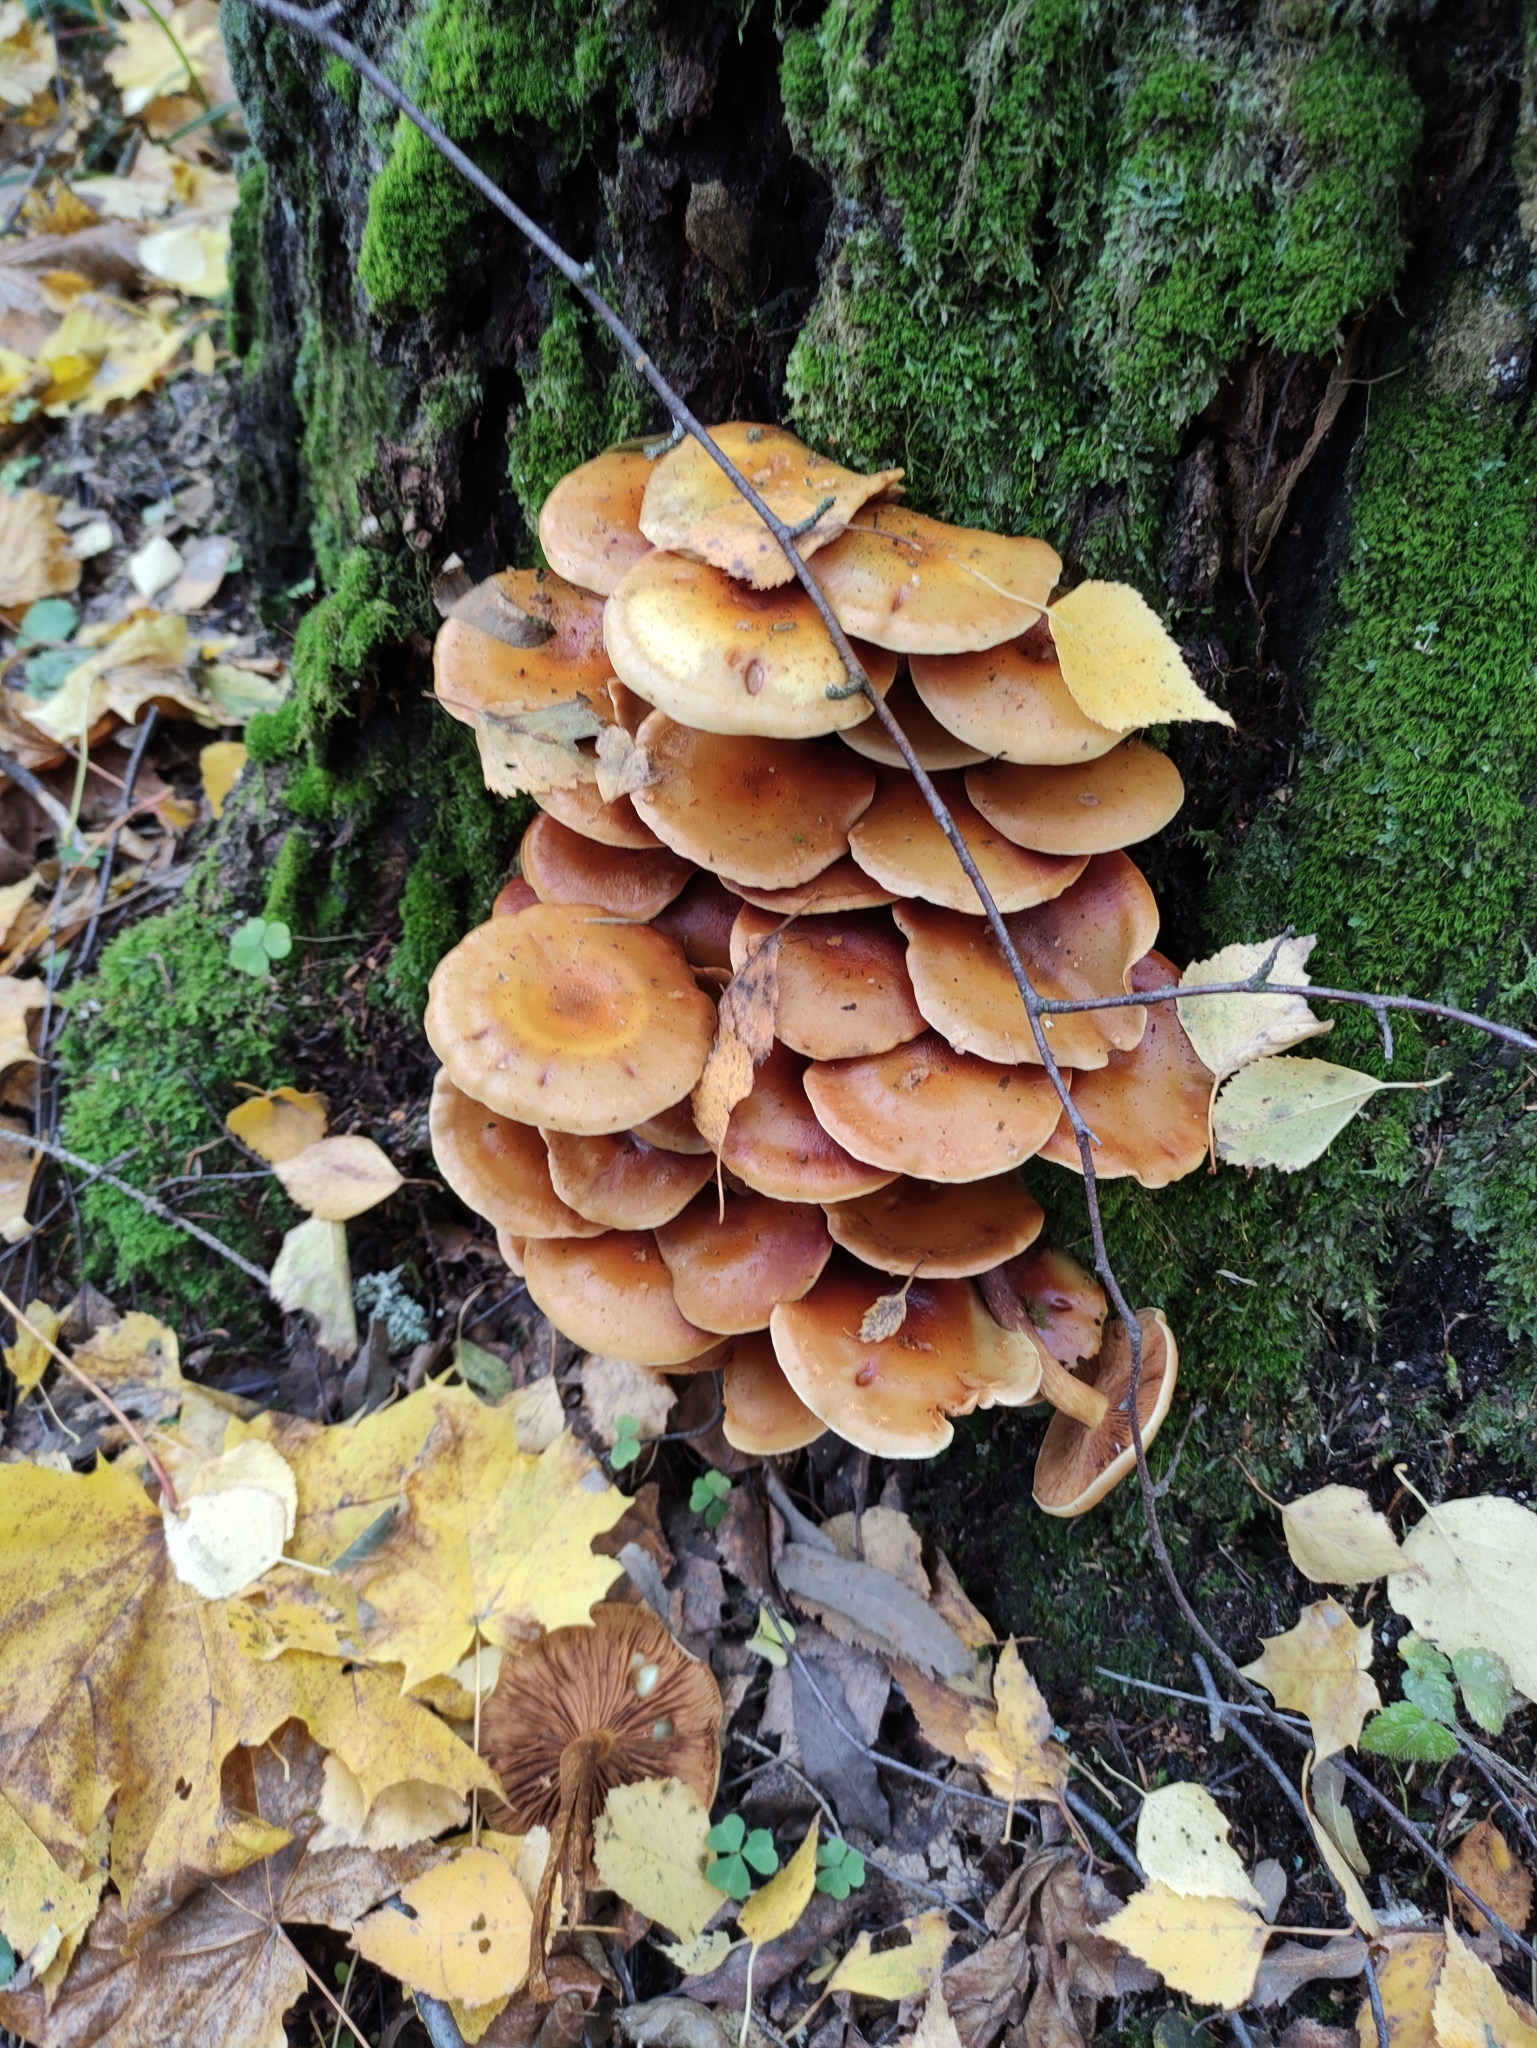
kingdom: Fungi
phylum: Basidiomycota
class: Agaricomycetes
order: Agaricales
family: Hymenogastraceae
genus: Flammula
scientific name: Flammula alnicola
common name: Alder scalycap
